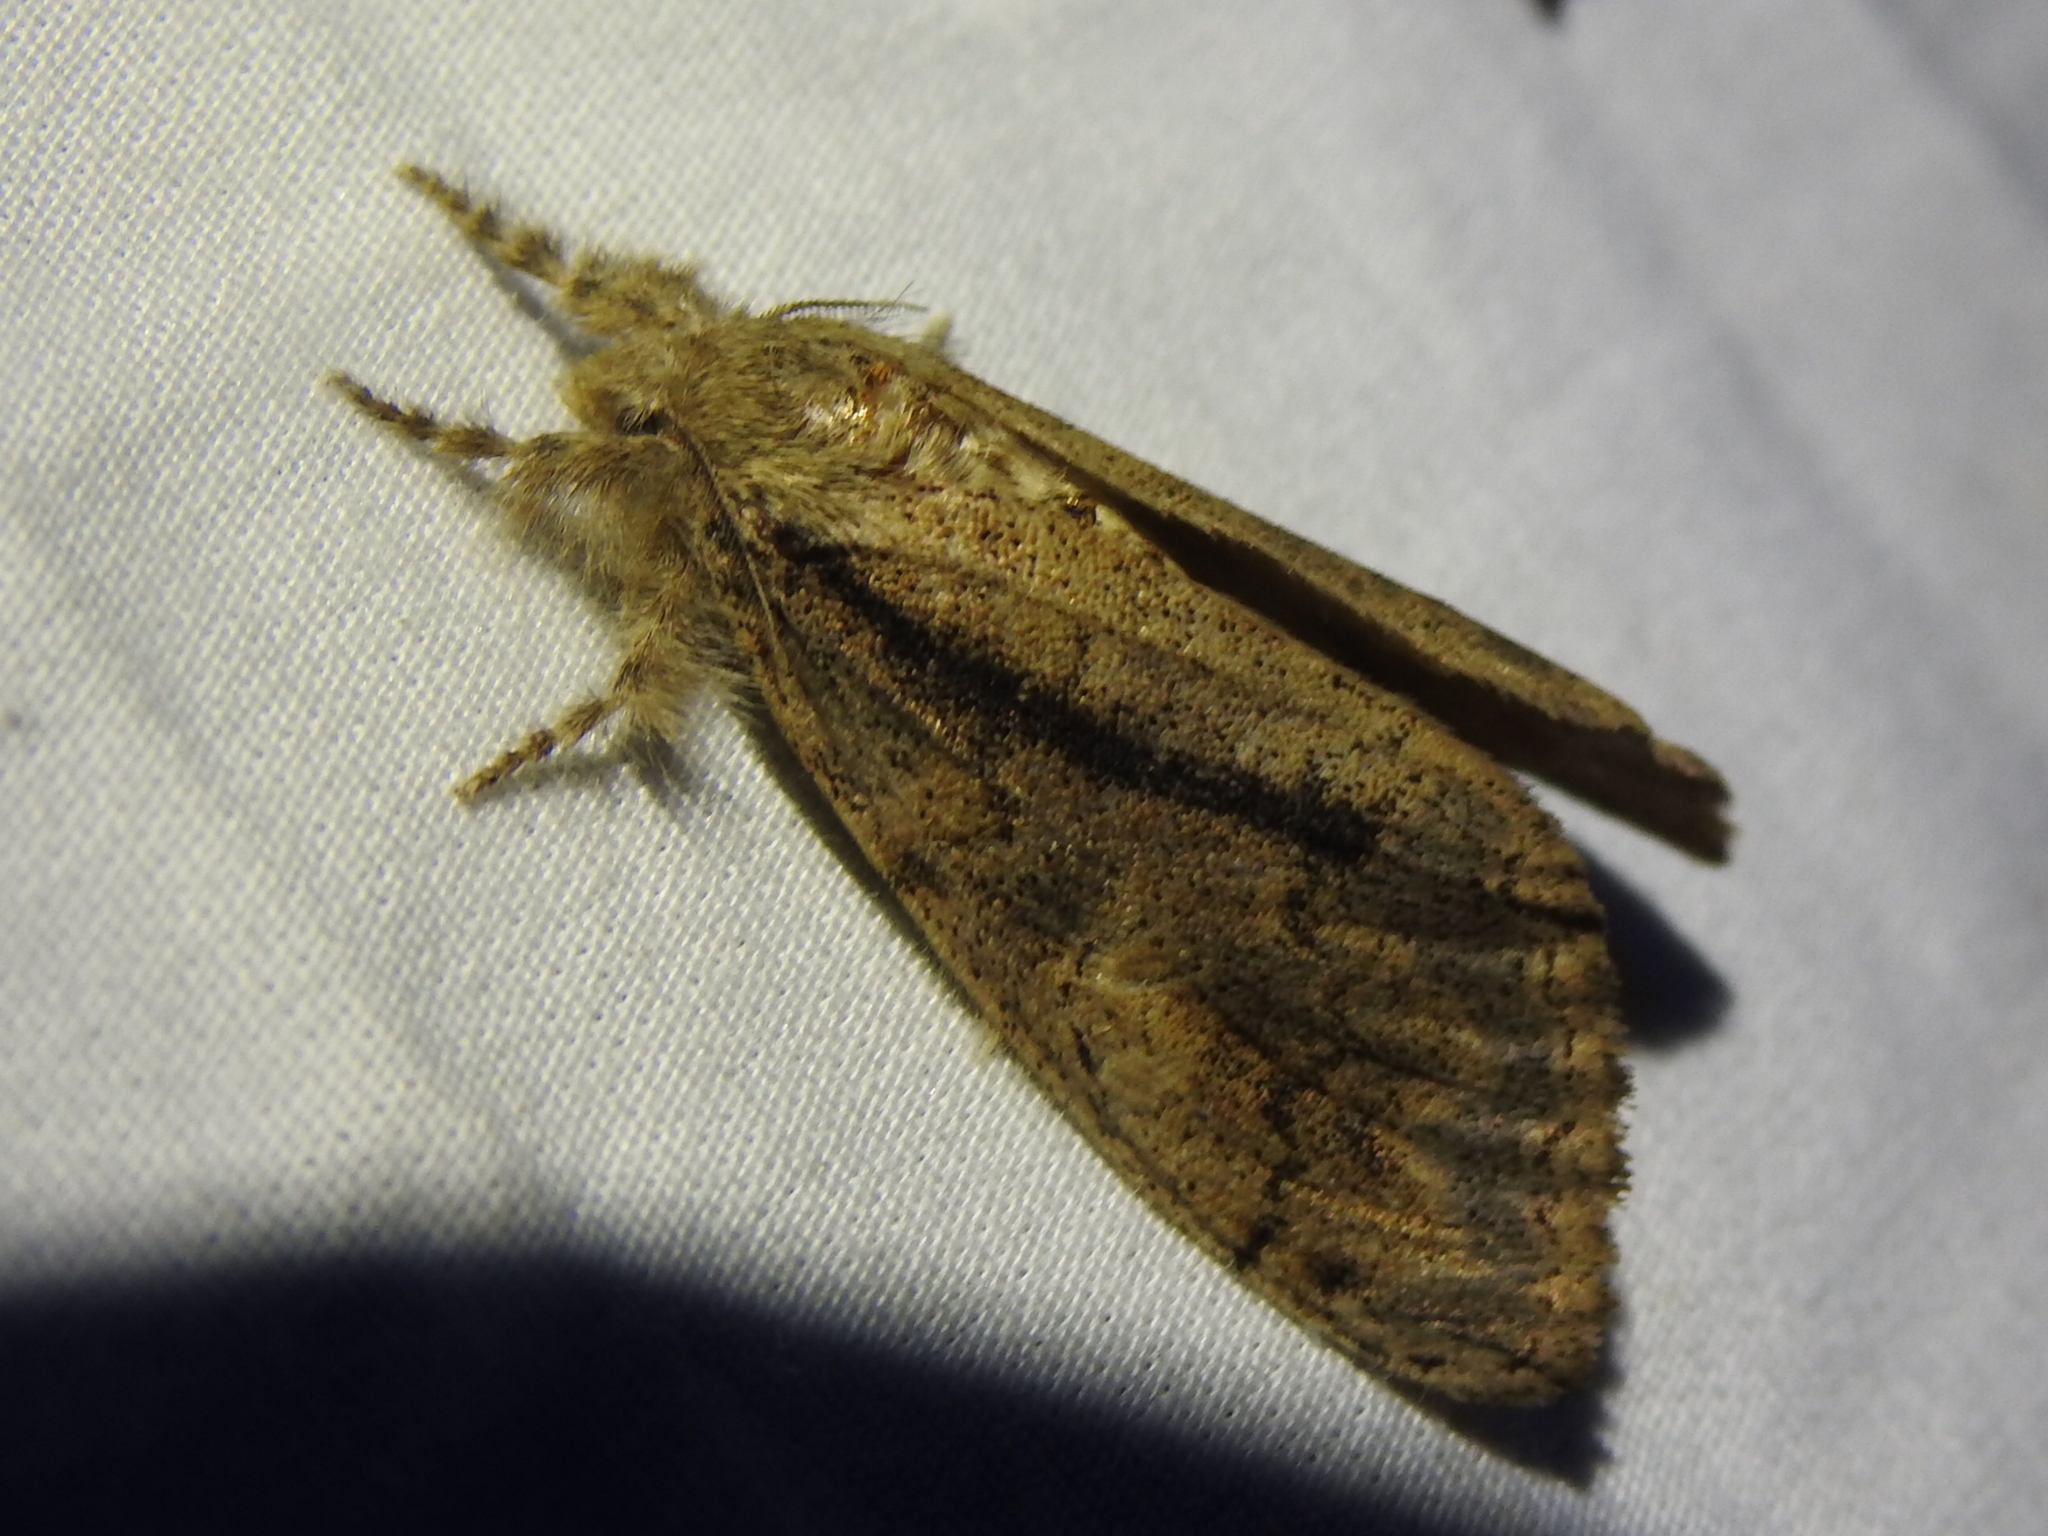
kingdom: Animalia
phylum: Arthropoda
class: Insecta
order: Lepidoptera
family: Erebidae
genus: Dasychira
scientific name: Dasychira tephra
